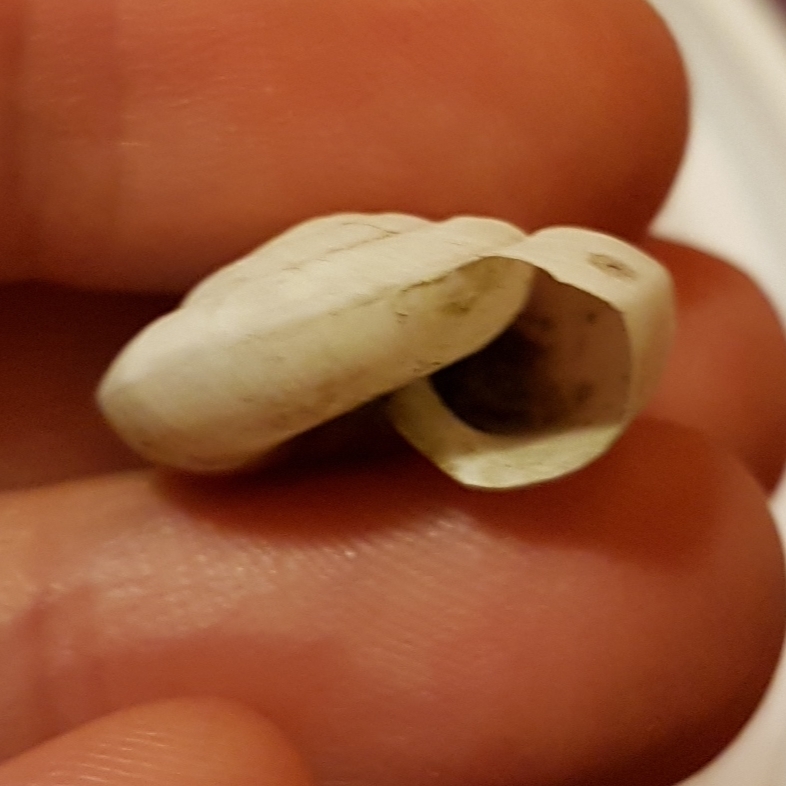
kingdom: Animalia
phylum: Mollusca
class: Gastropoda
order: Stylommatophora
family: Zonitidae
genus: Zonites
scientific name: Zonites algirus
